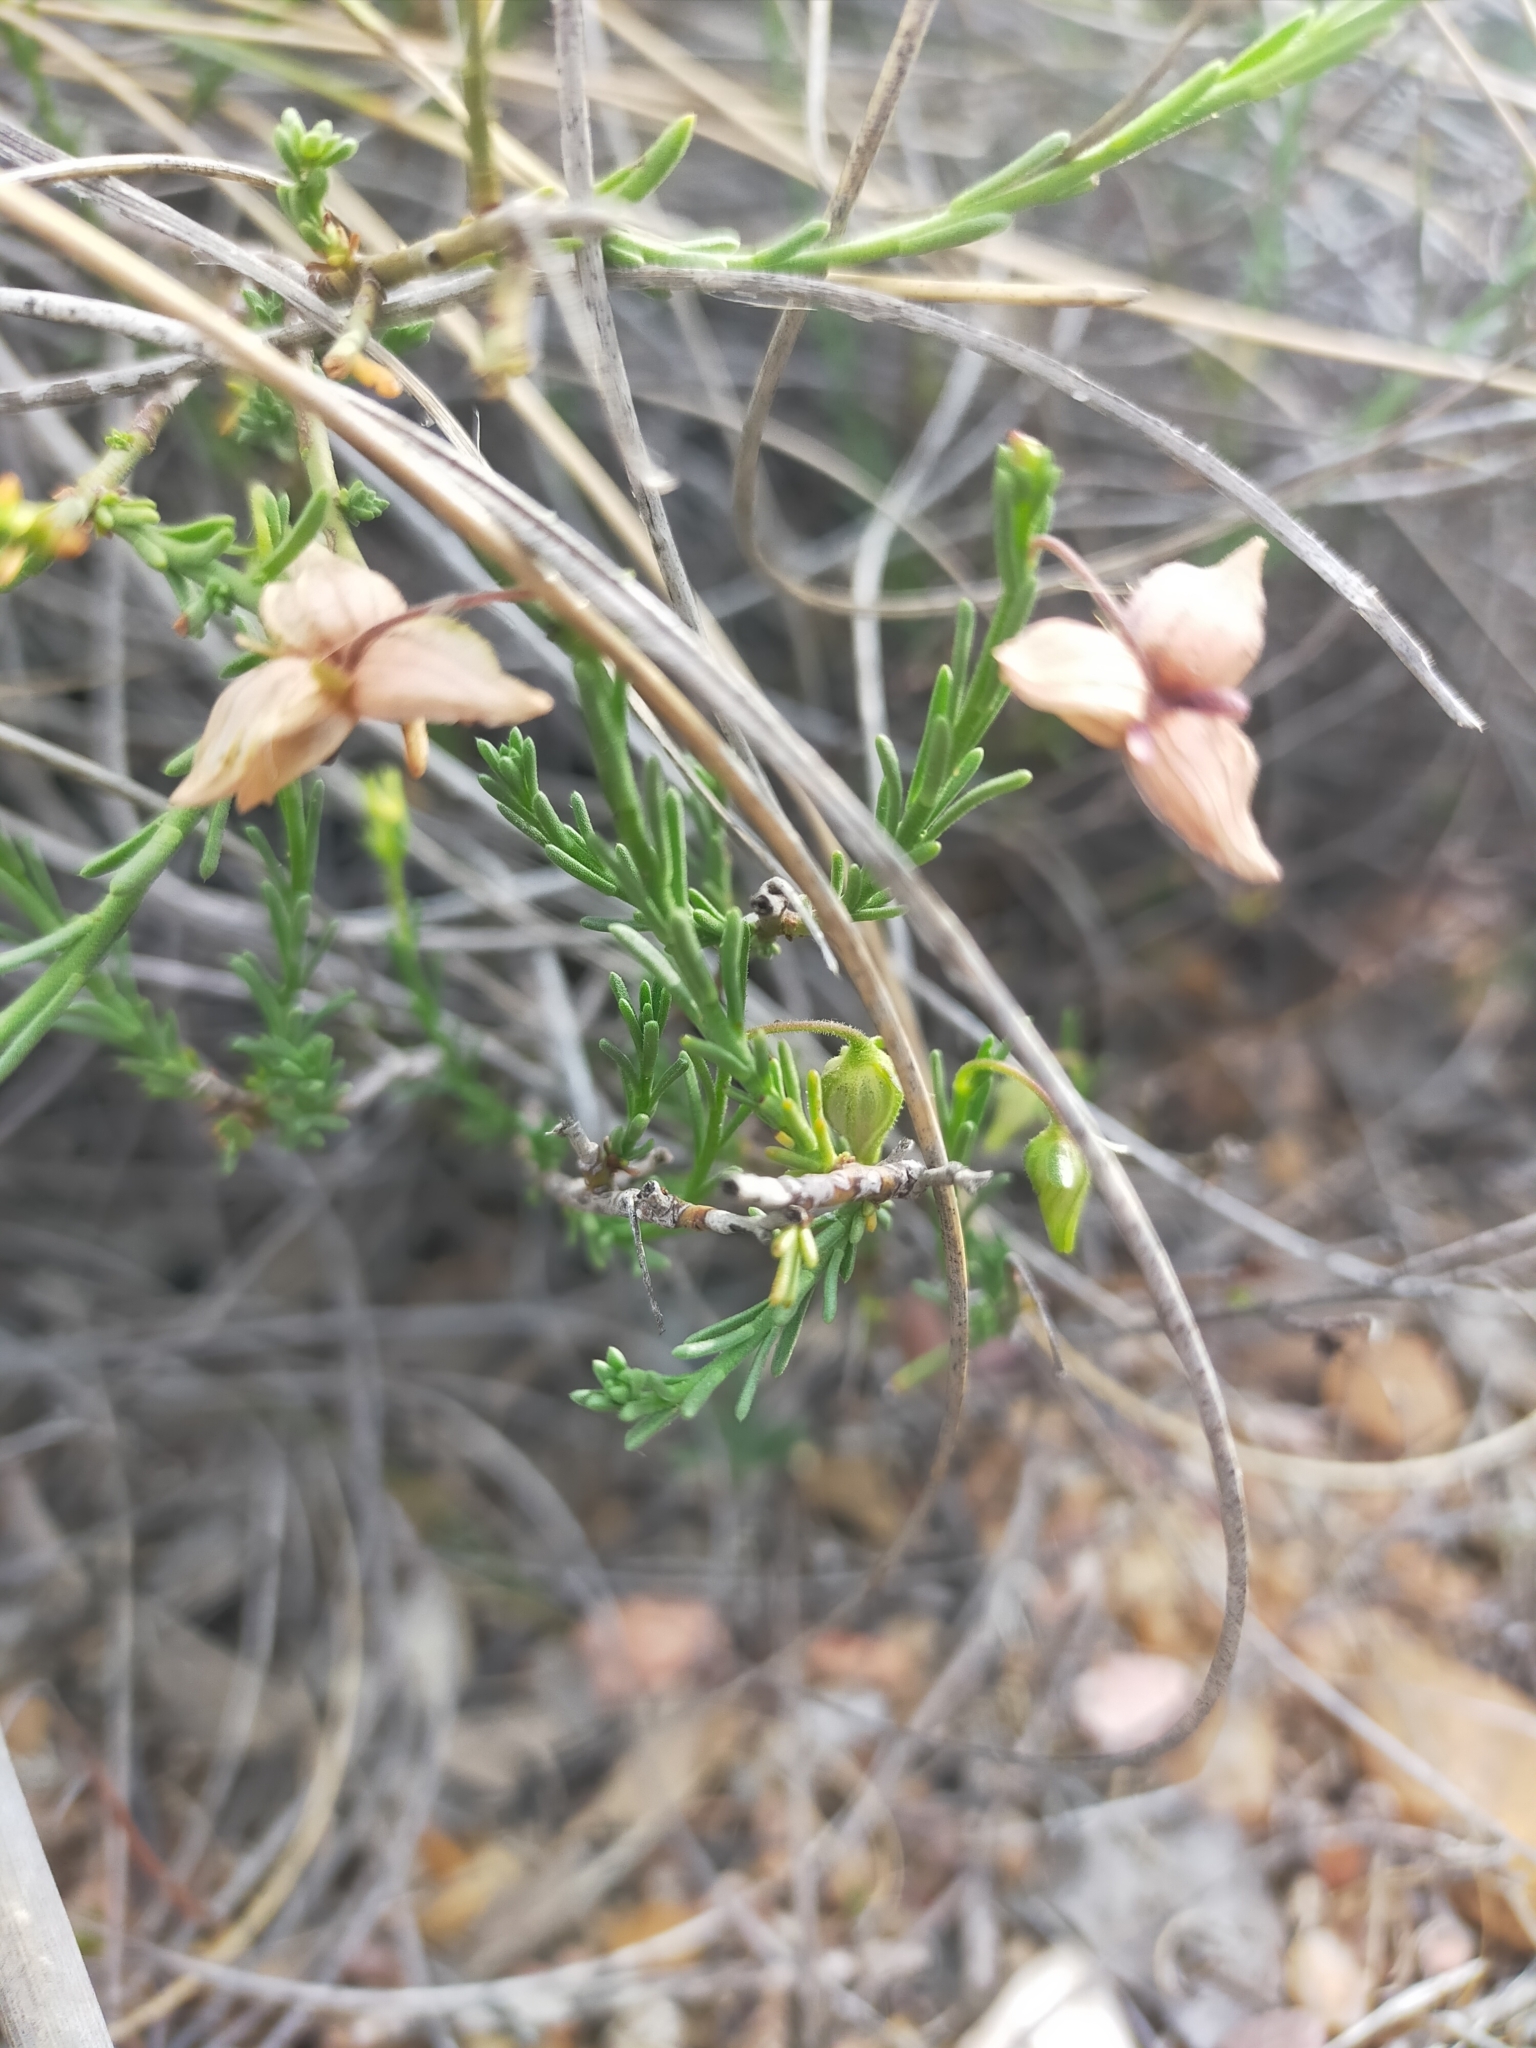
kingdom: Plantae
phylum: Tracheophyta
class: Magnoliopsida
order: Malvales
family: Cistaceae
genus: Fumana
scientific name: Fumana ericifolia
